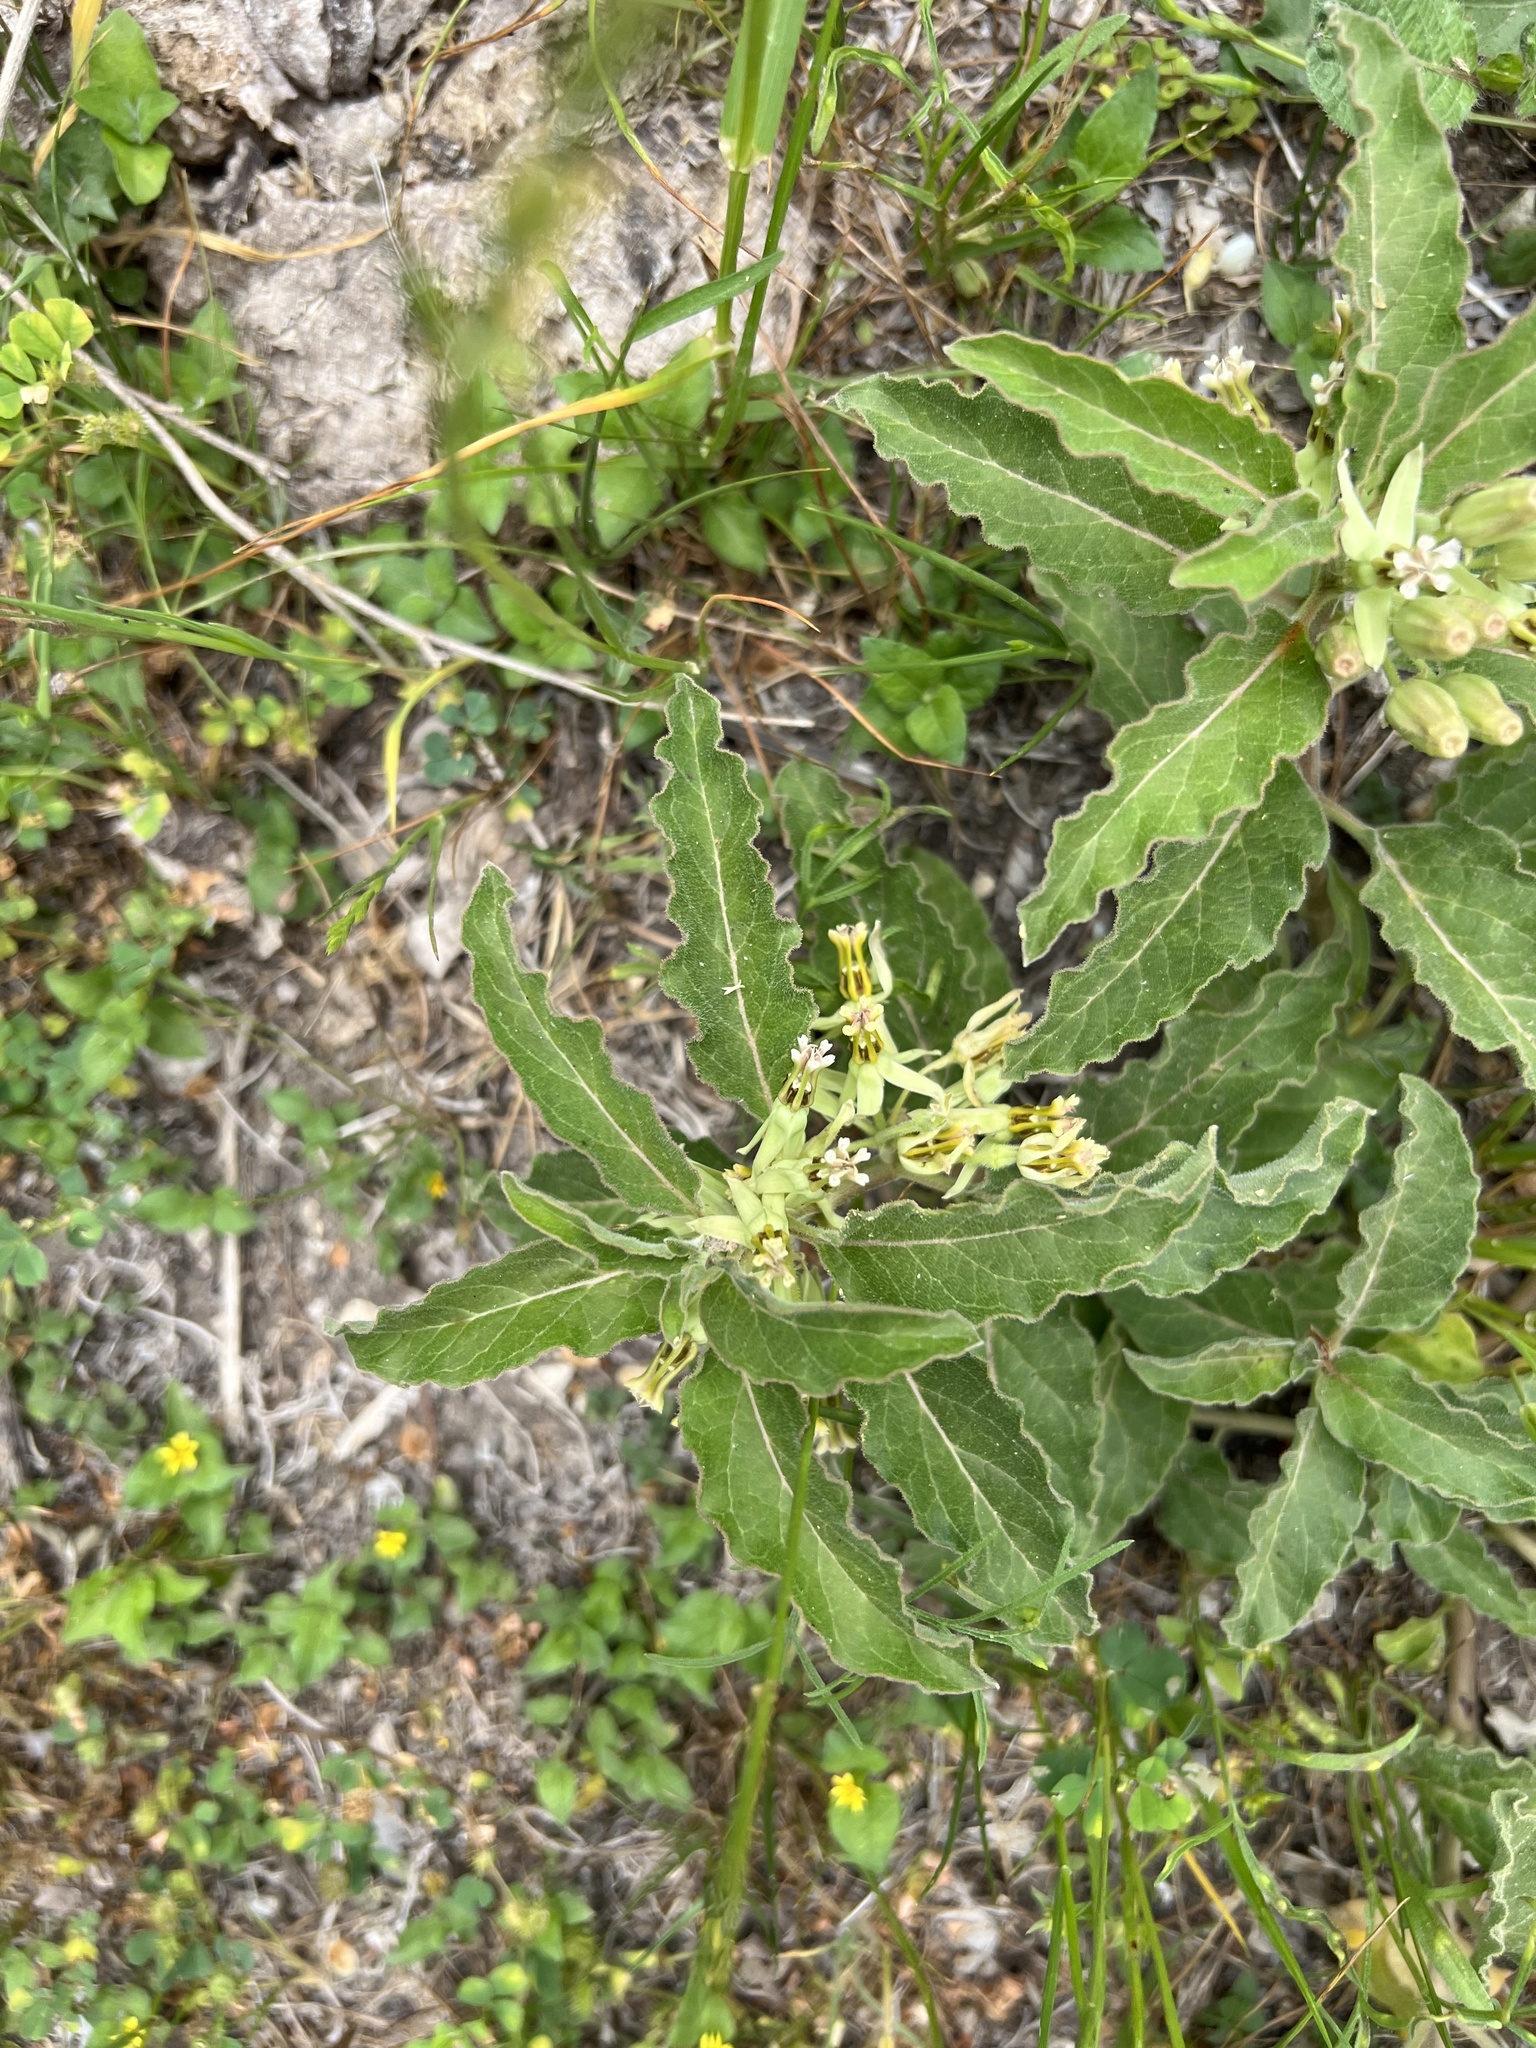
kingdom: Plantae
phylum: Tracheophyta
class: Magnoliopsida
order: Gentianales
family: Apocynaceae
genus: Asclepias
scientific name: Asclepias oenotheroides
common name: Zizotes milkweed
